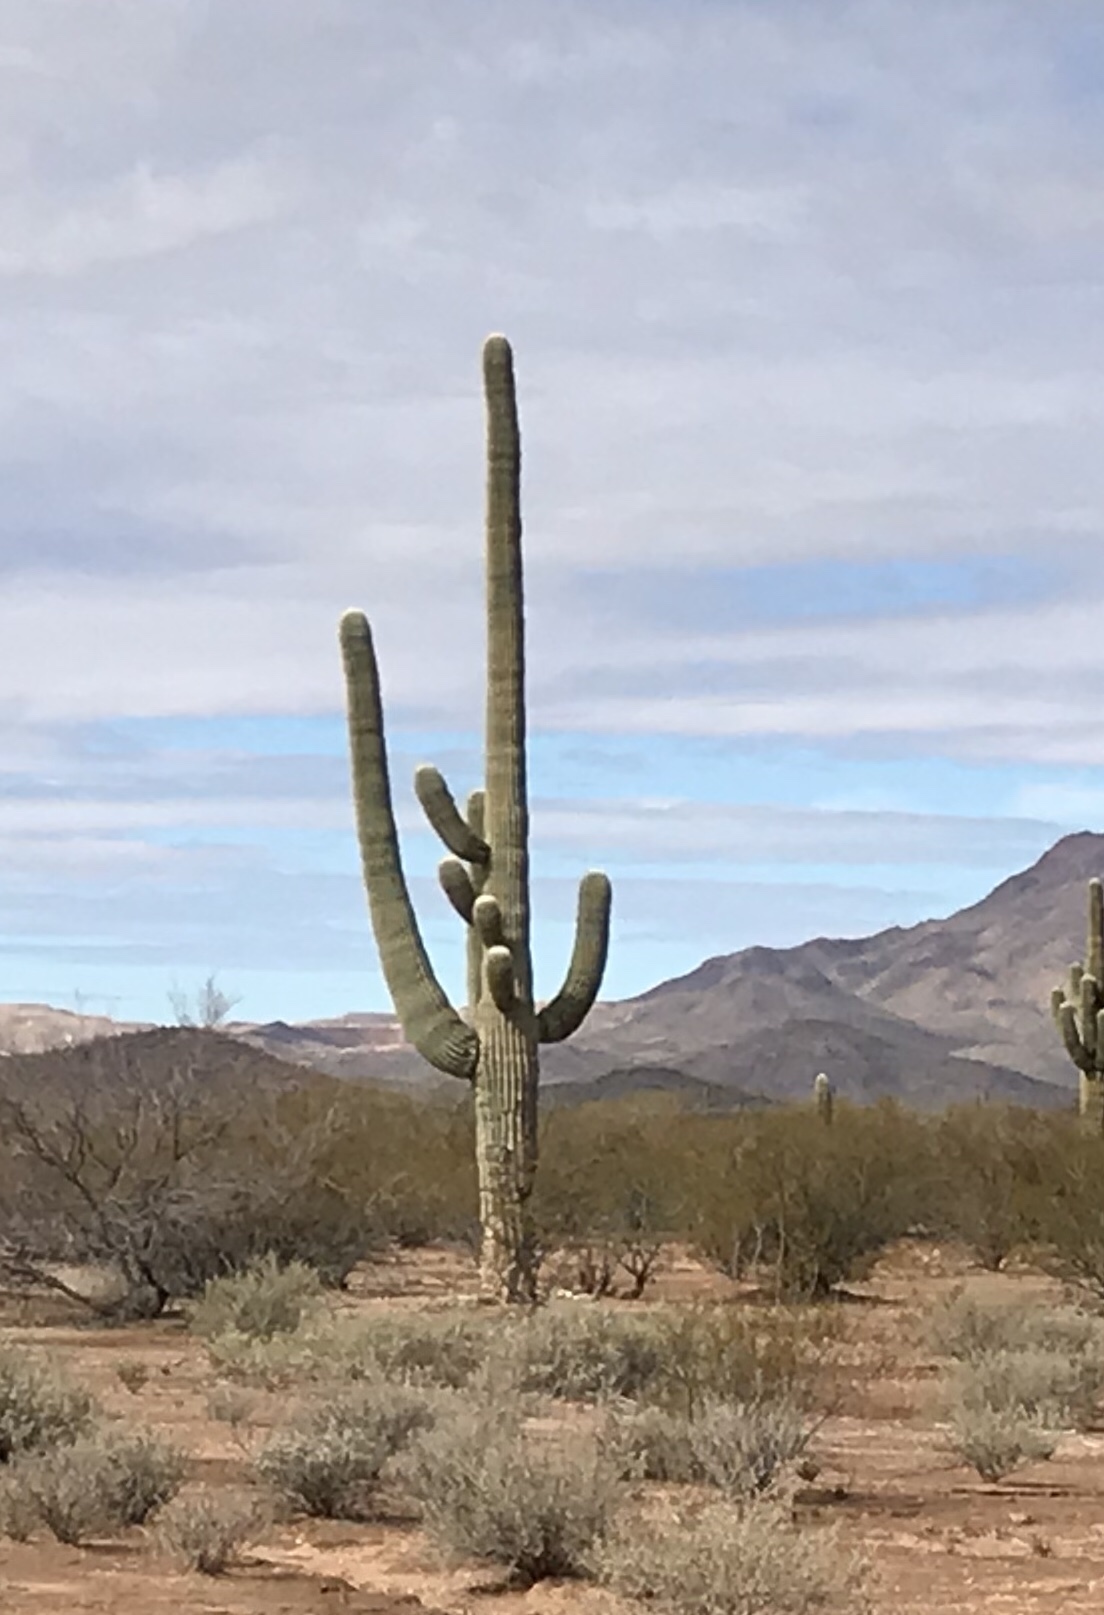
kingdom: Plantae
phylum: Tracheophyta
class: Magnoliopsida
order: Caryophyllales
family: Cactaceae
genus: Carnegiea
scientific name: Carnegiea gigantea
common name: Saguaro
